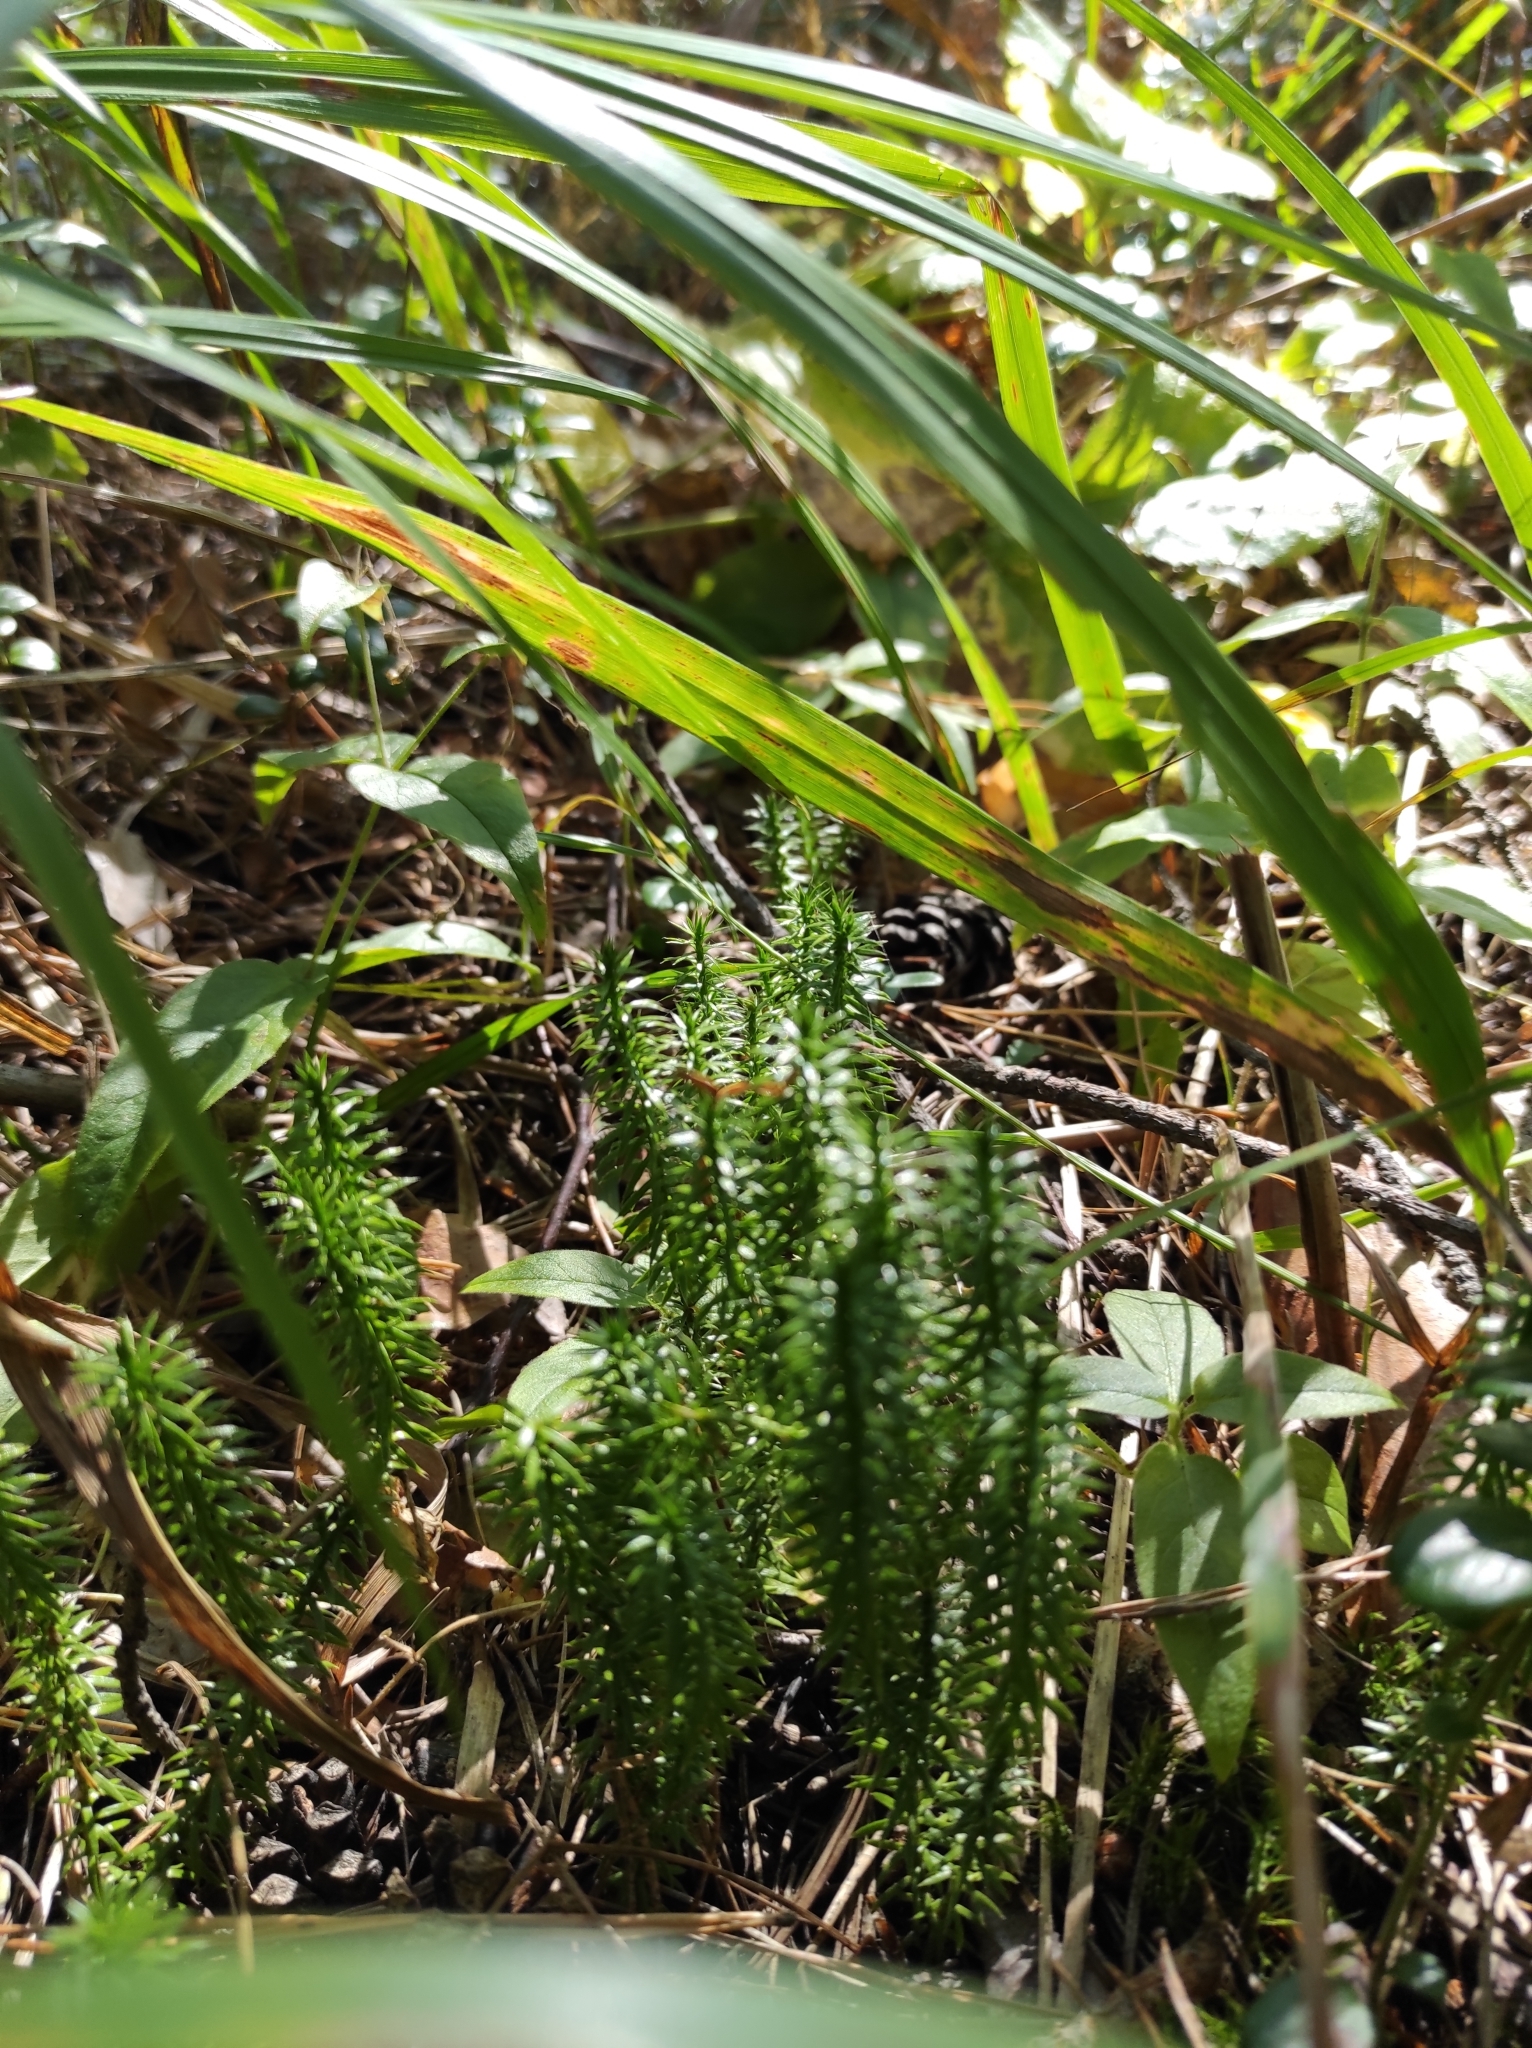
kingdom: Plantae
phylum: Tracheophyta
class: Lycopodiopsida
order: Lycopodiales
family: Lycopodiaceae
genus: Spinulum
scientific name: Spinulum annotinum
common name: Interrupted club-moss
